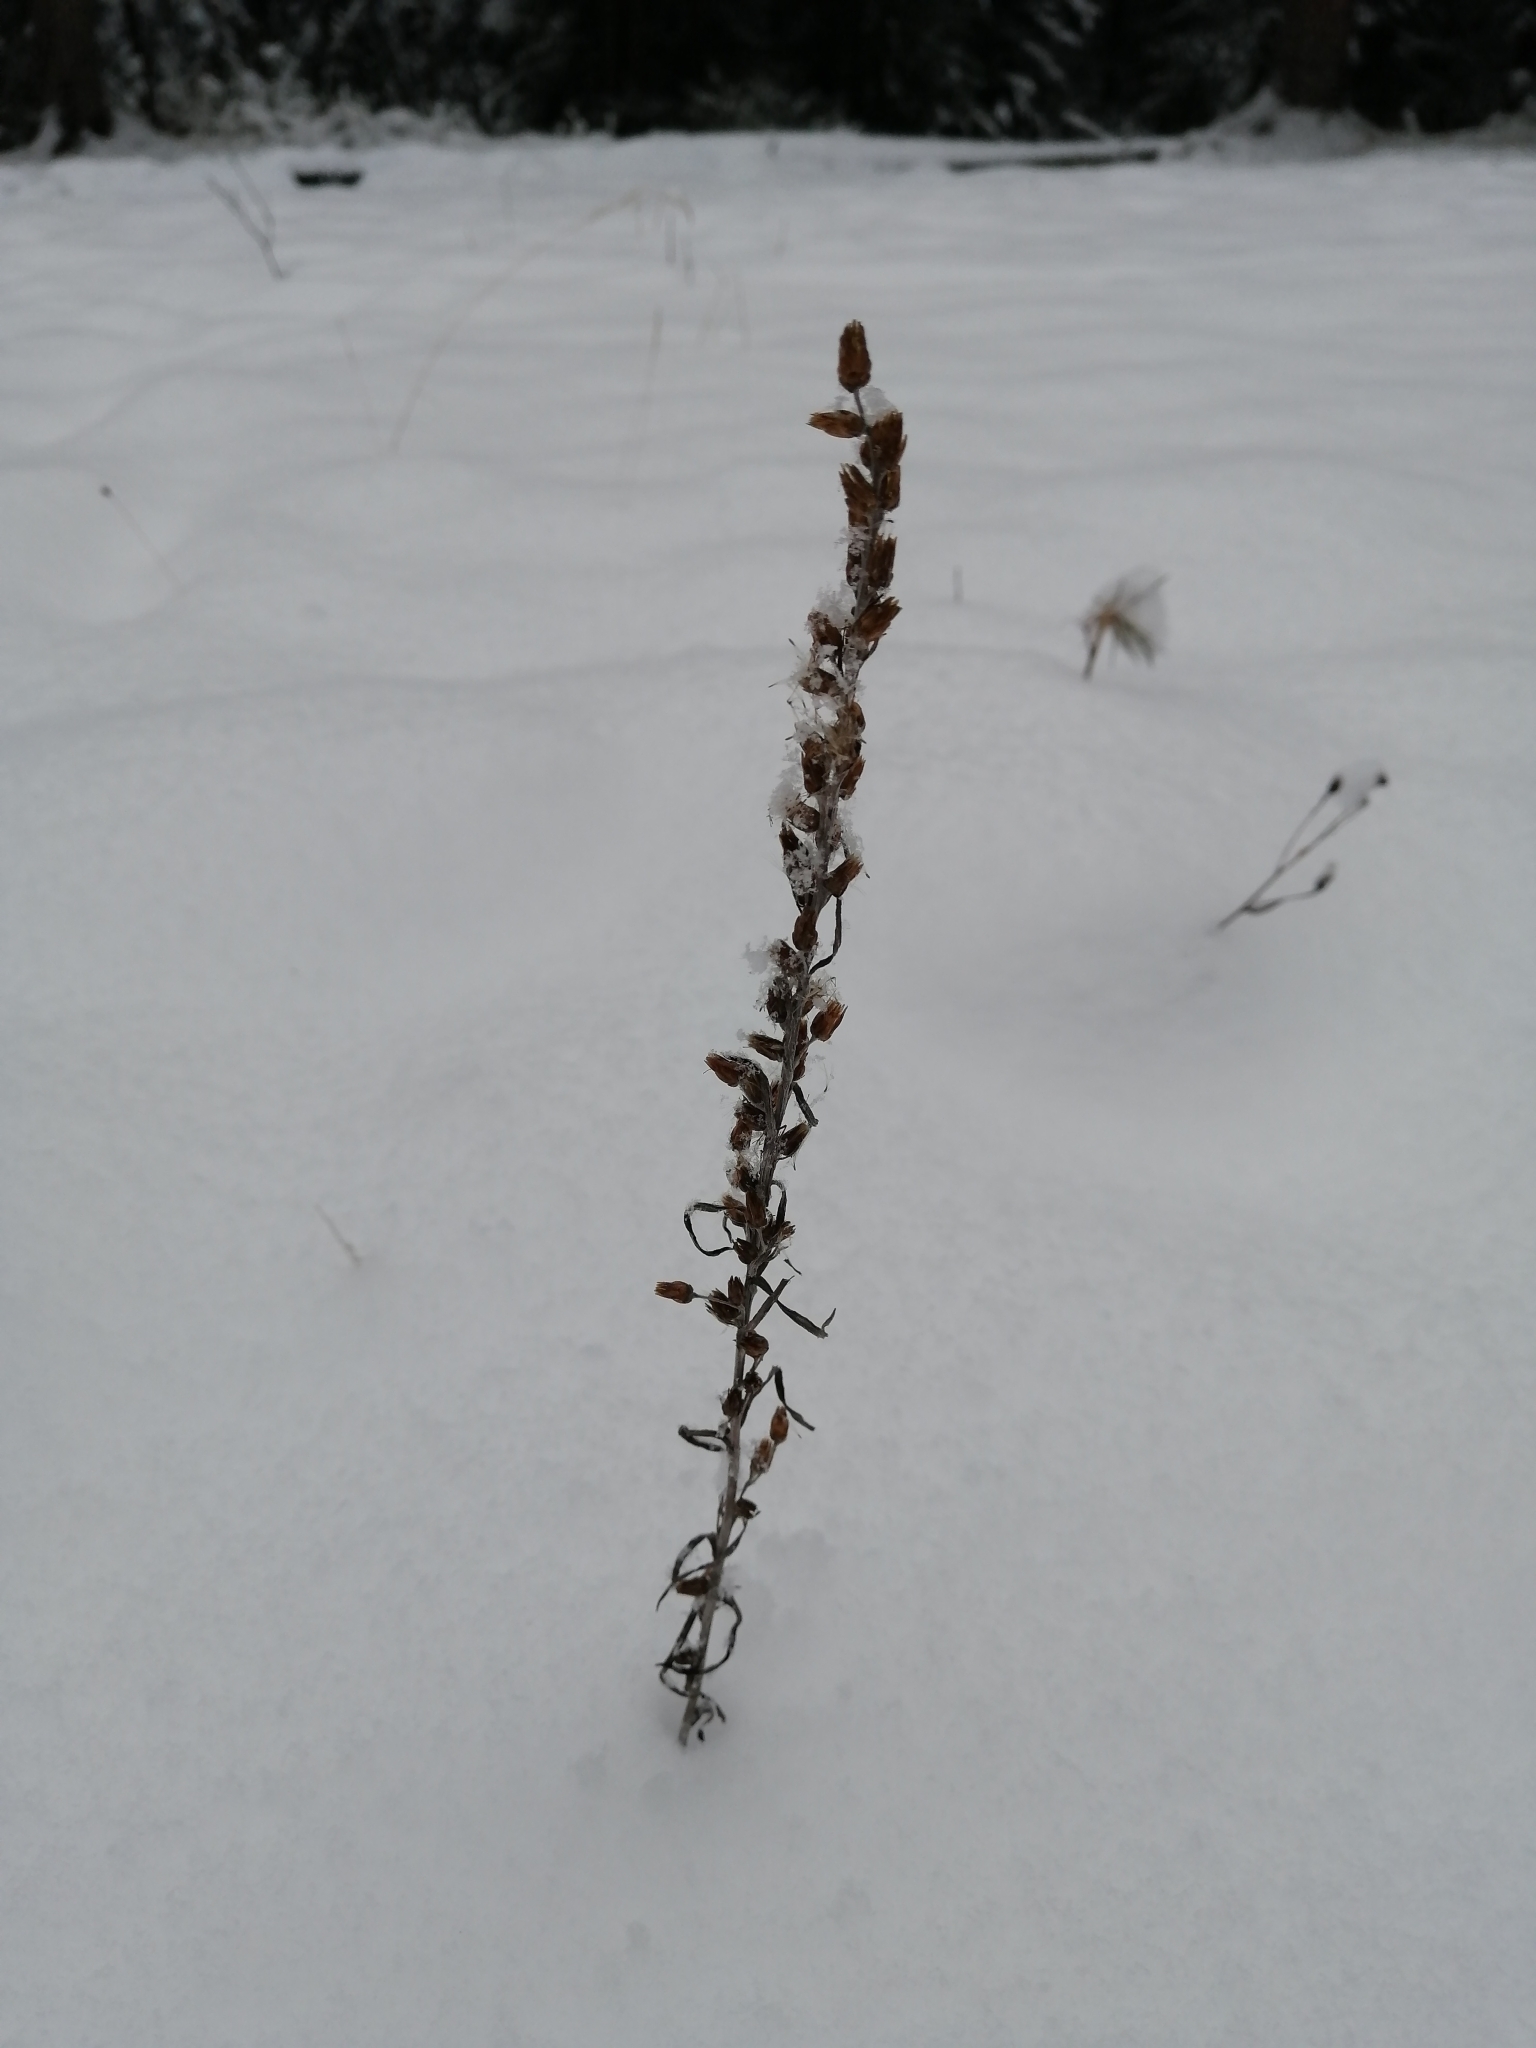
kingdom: Plantae
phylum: Tracheophyta
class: Magnoliopsida
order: Asterales
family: Asteraceae
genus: Omalotheca
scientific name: Omalotheca sylvatica
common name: Heath cudweed
